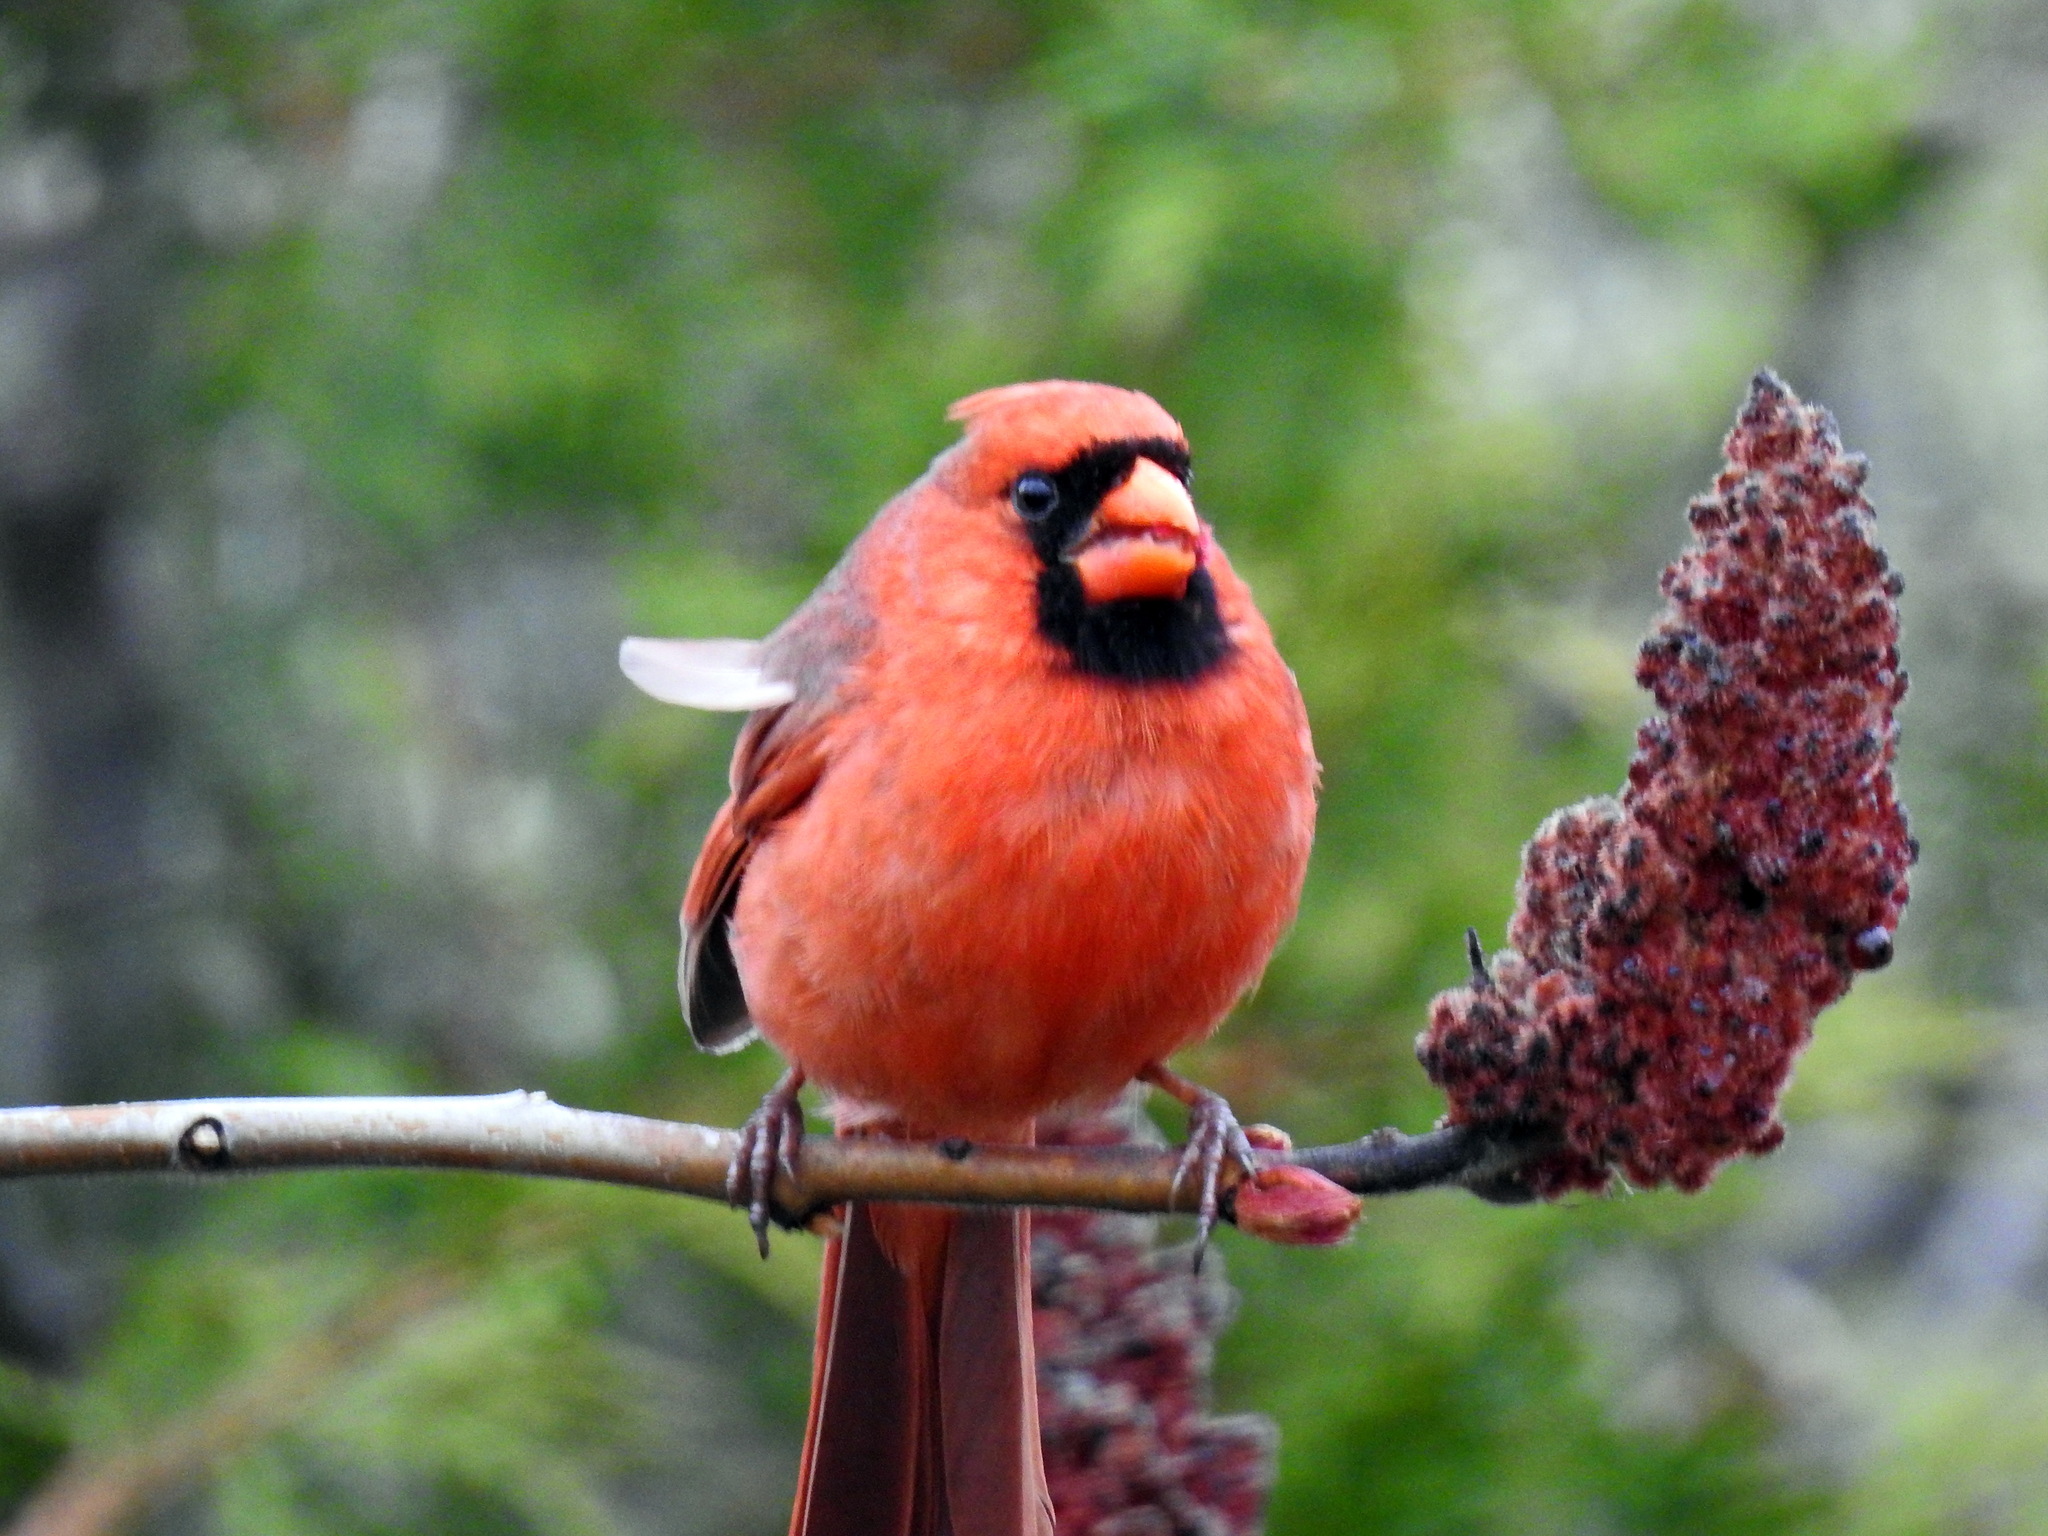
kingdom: Animalia
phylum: Chordata
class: Aves
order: Passeriformes
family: Cardinalidae
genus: Cardinalis
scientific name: Cardinalis cardinalis
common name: Northern cardinal
